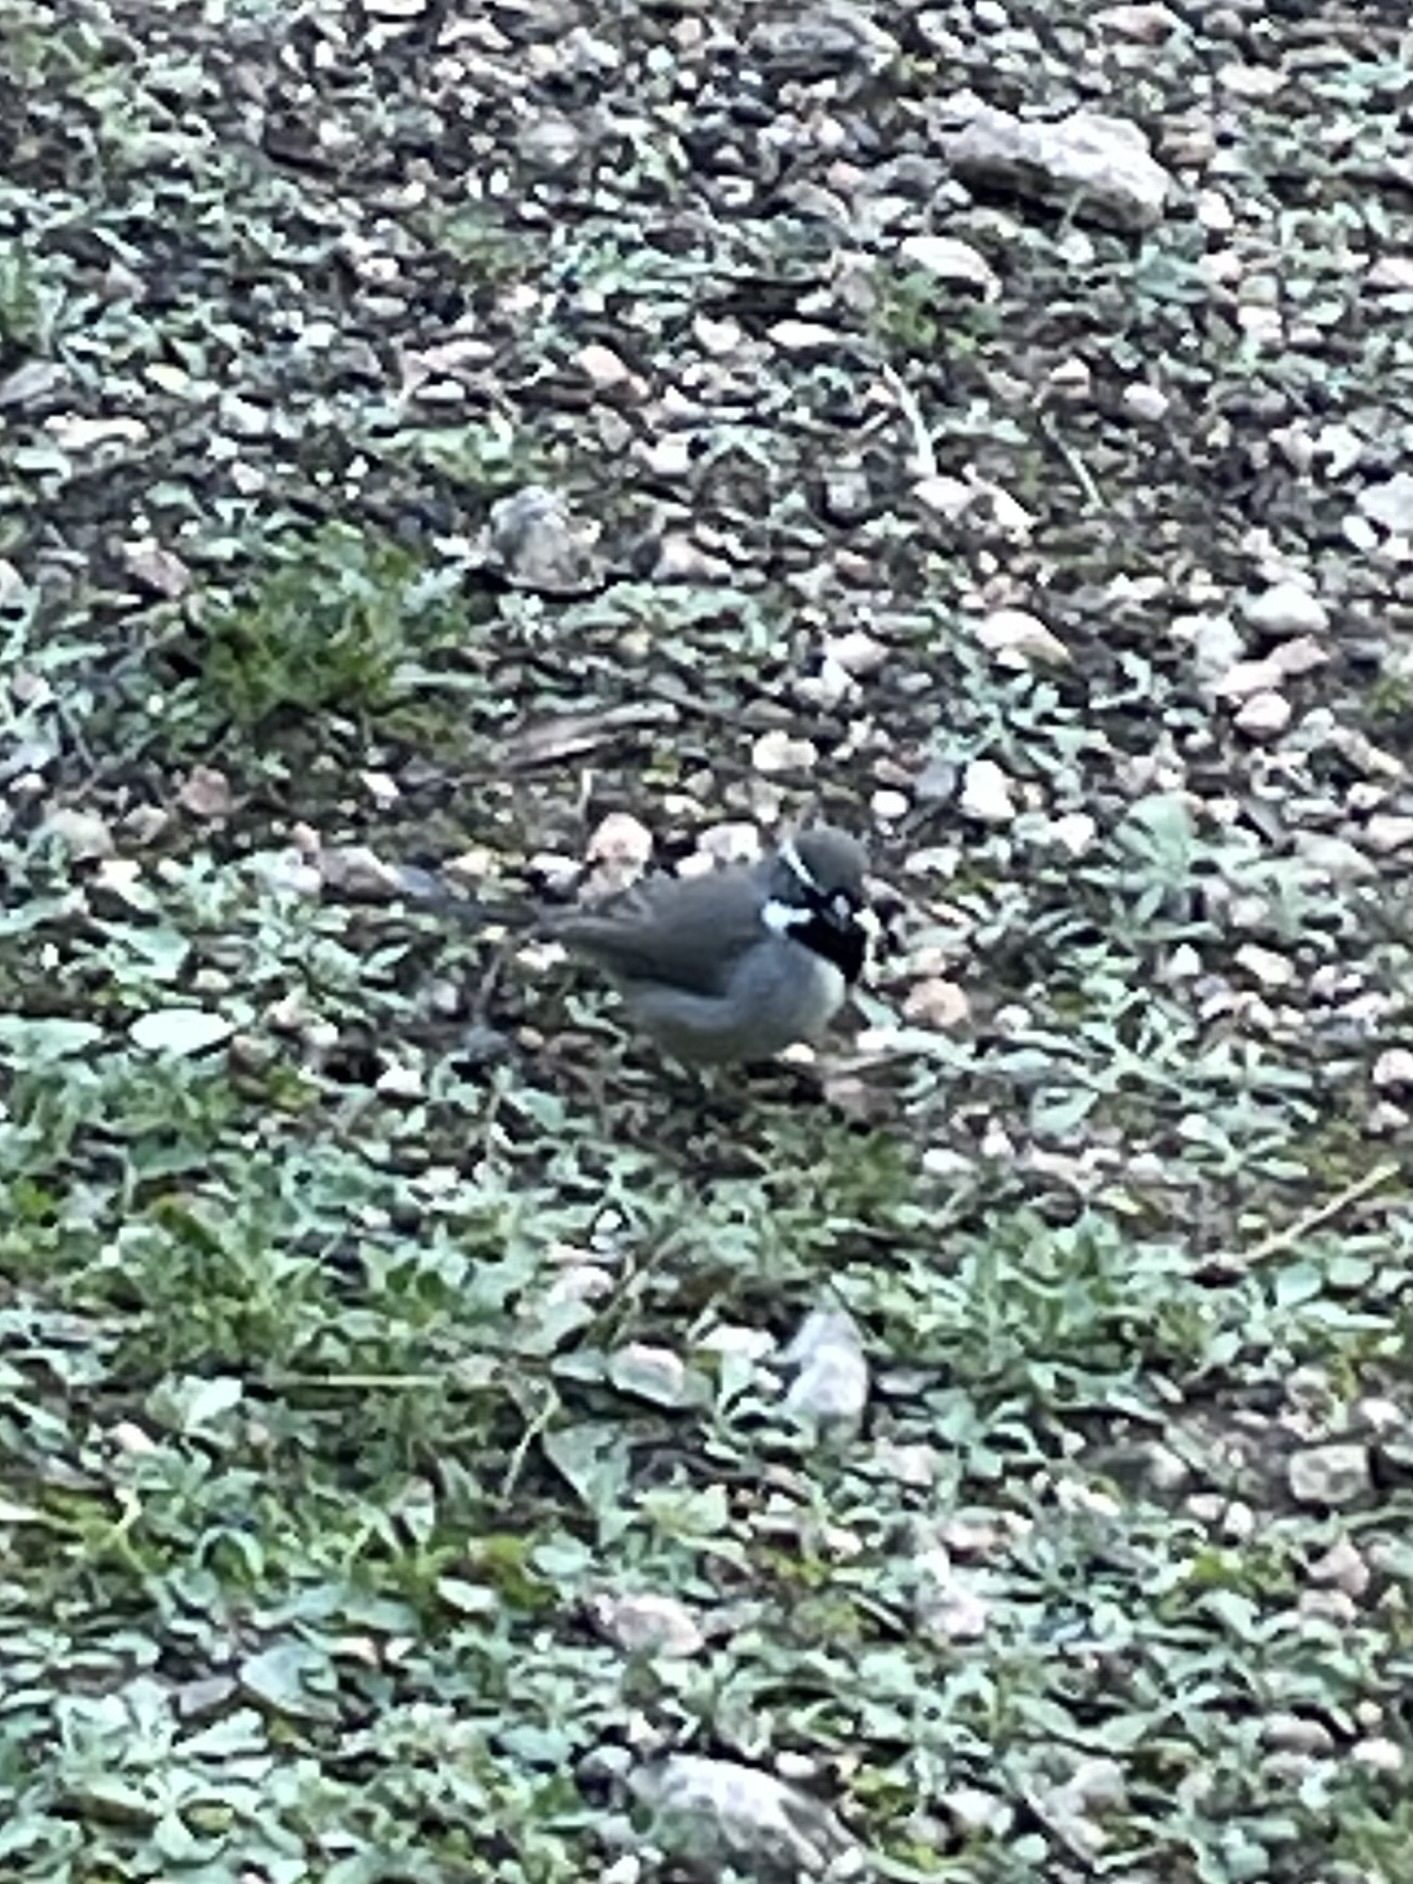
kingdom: Animalia
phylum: Chordata
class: Aves
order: Passeriformes
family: Passerellidae
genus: Amphispiza
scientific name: Amphispiza bilineata
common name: Black-throated sparrow
